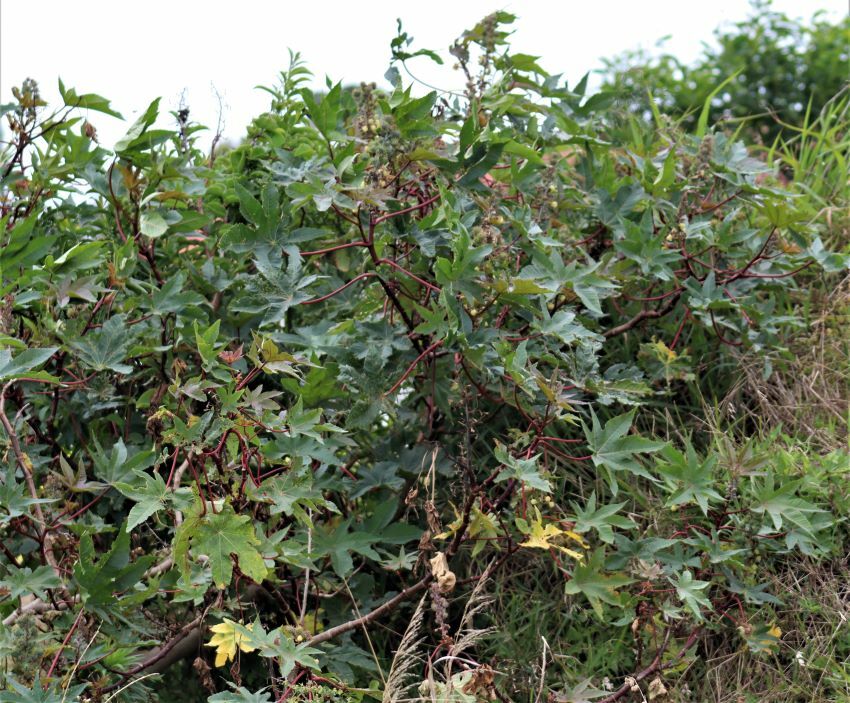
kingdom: Plantae
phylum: Tracheophyta
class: Magnoliopsida
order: Malpighiales
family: Euphorbiaceae
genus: Ricinus
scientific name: Ricinus communis
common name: Castor-oil-plant
